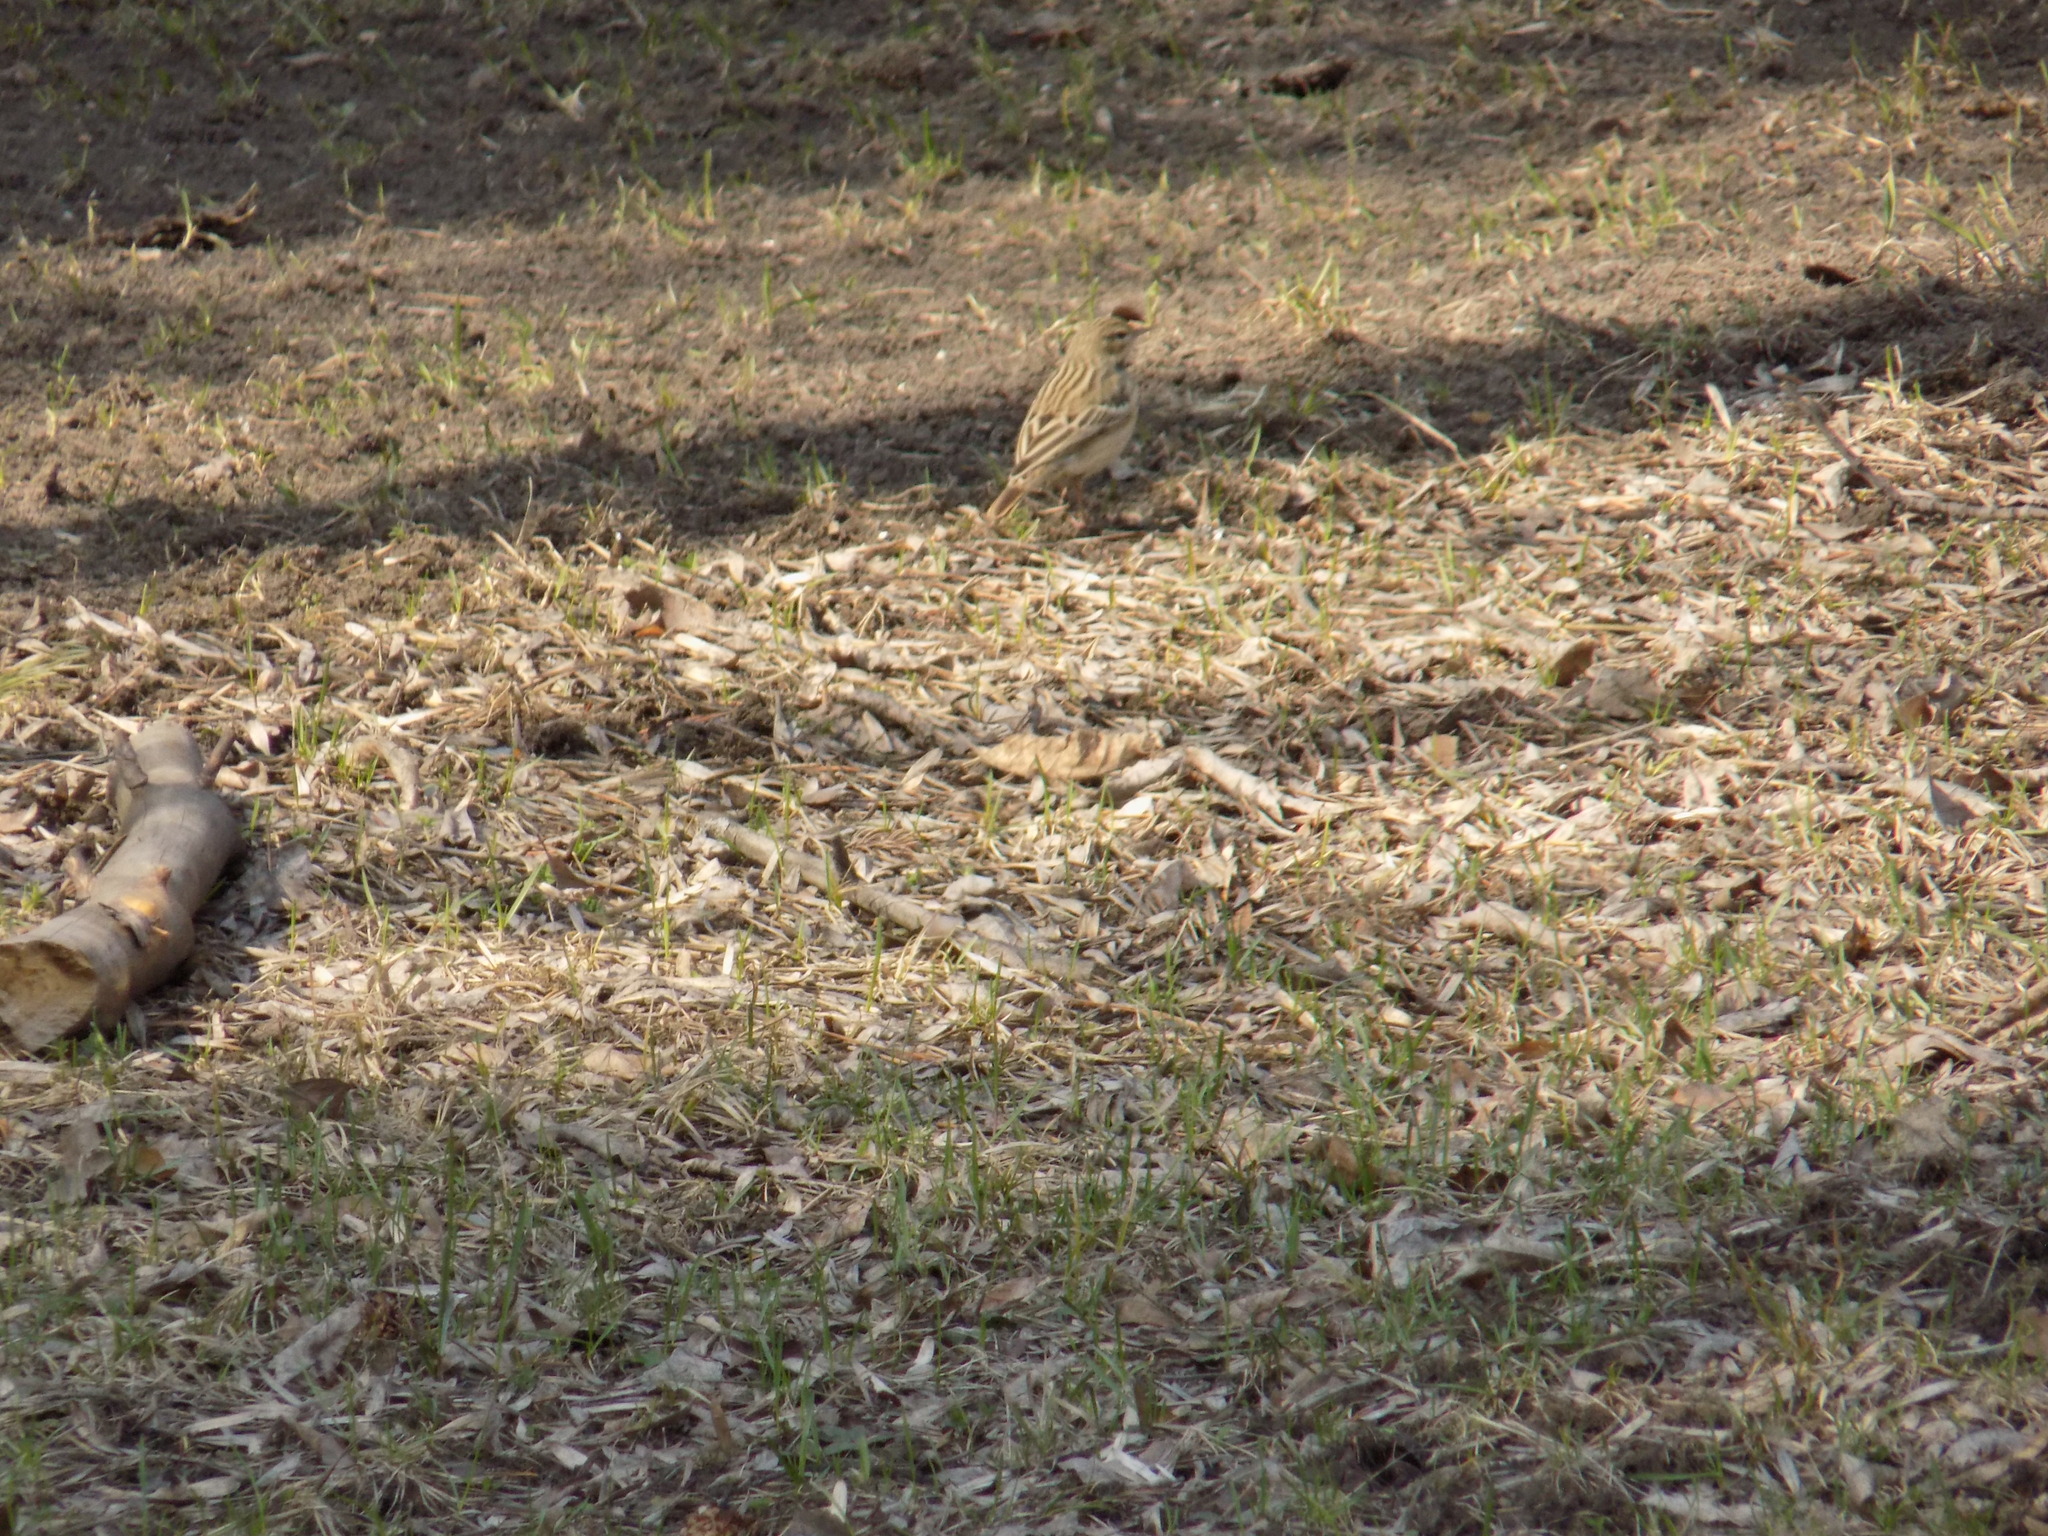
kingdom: Animalia
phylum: Chordata
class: Aves
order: Passeriformes
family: Motacillidae
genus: Anthus
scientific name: Anthus trivialis
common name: Tree pipit
